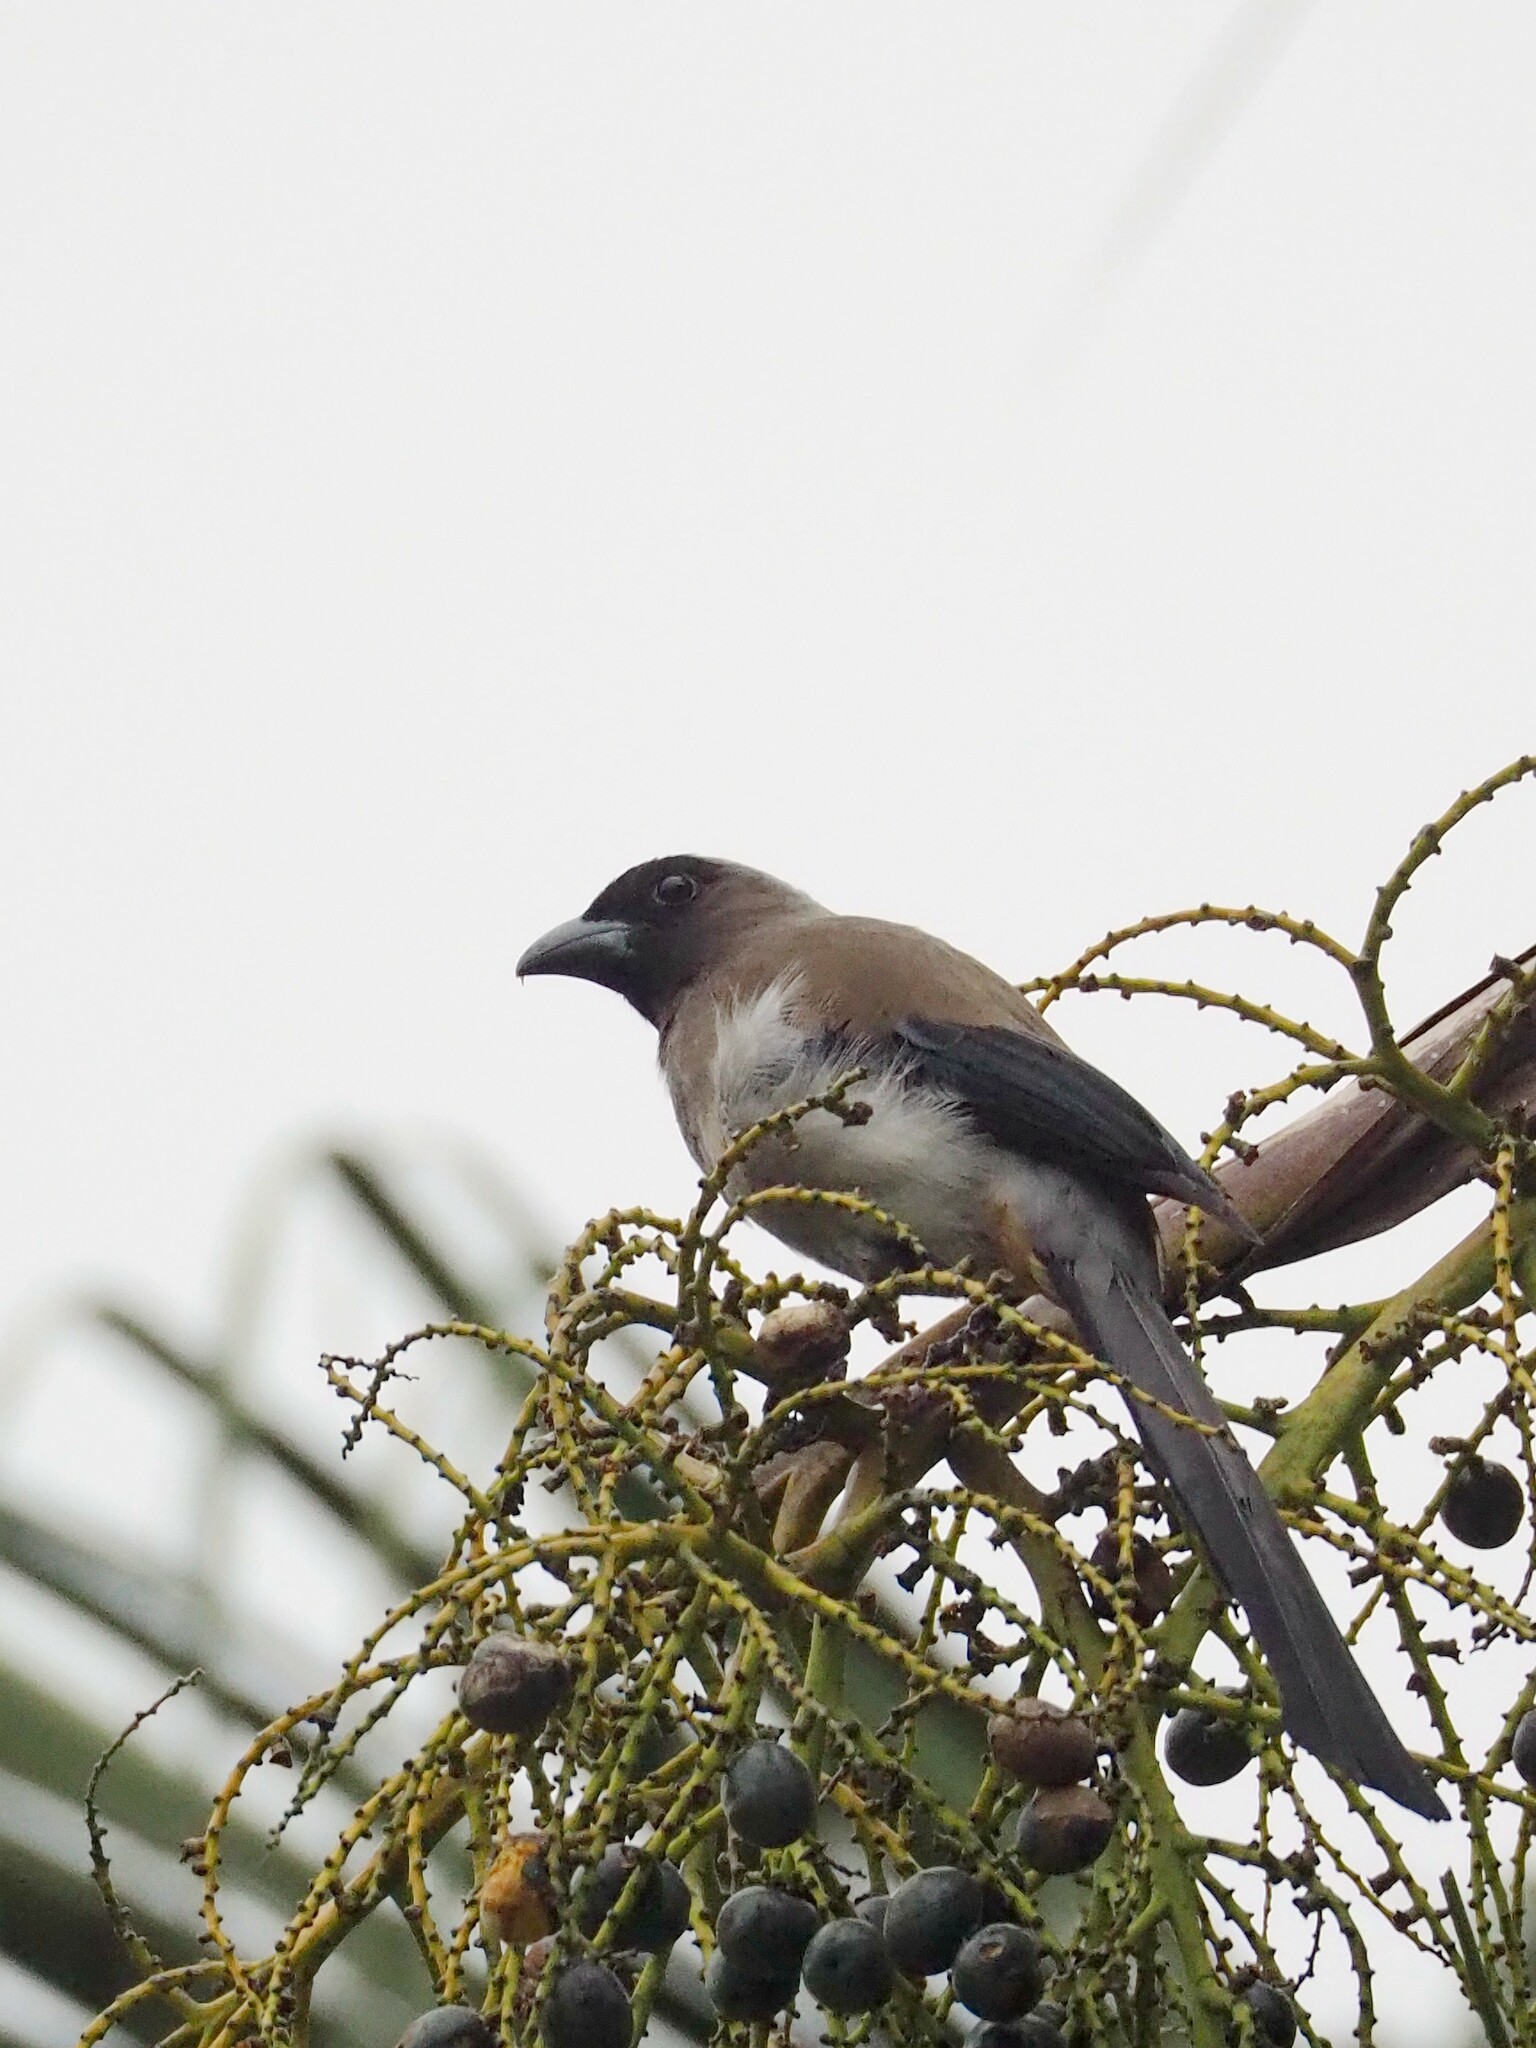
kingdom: Animalia
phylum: Chordata
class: Aves
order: Passeriformes
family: Corvidae
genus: Dendrocitta
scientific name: Dendrocitta formosae
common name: Grey treepie
